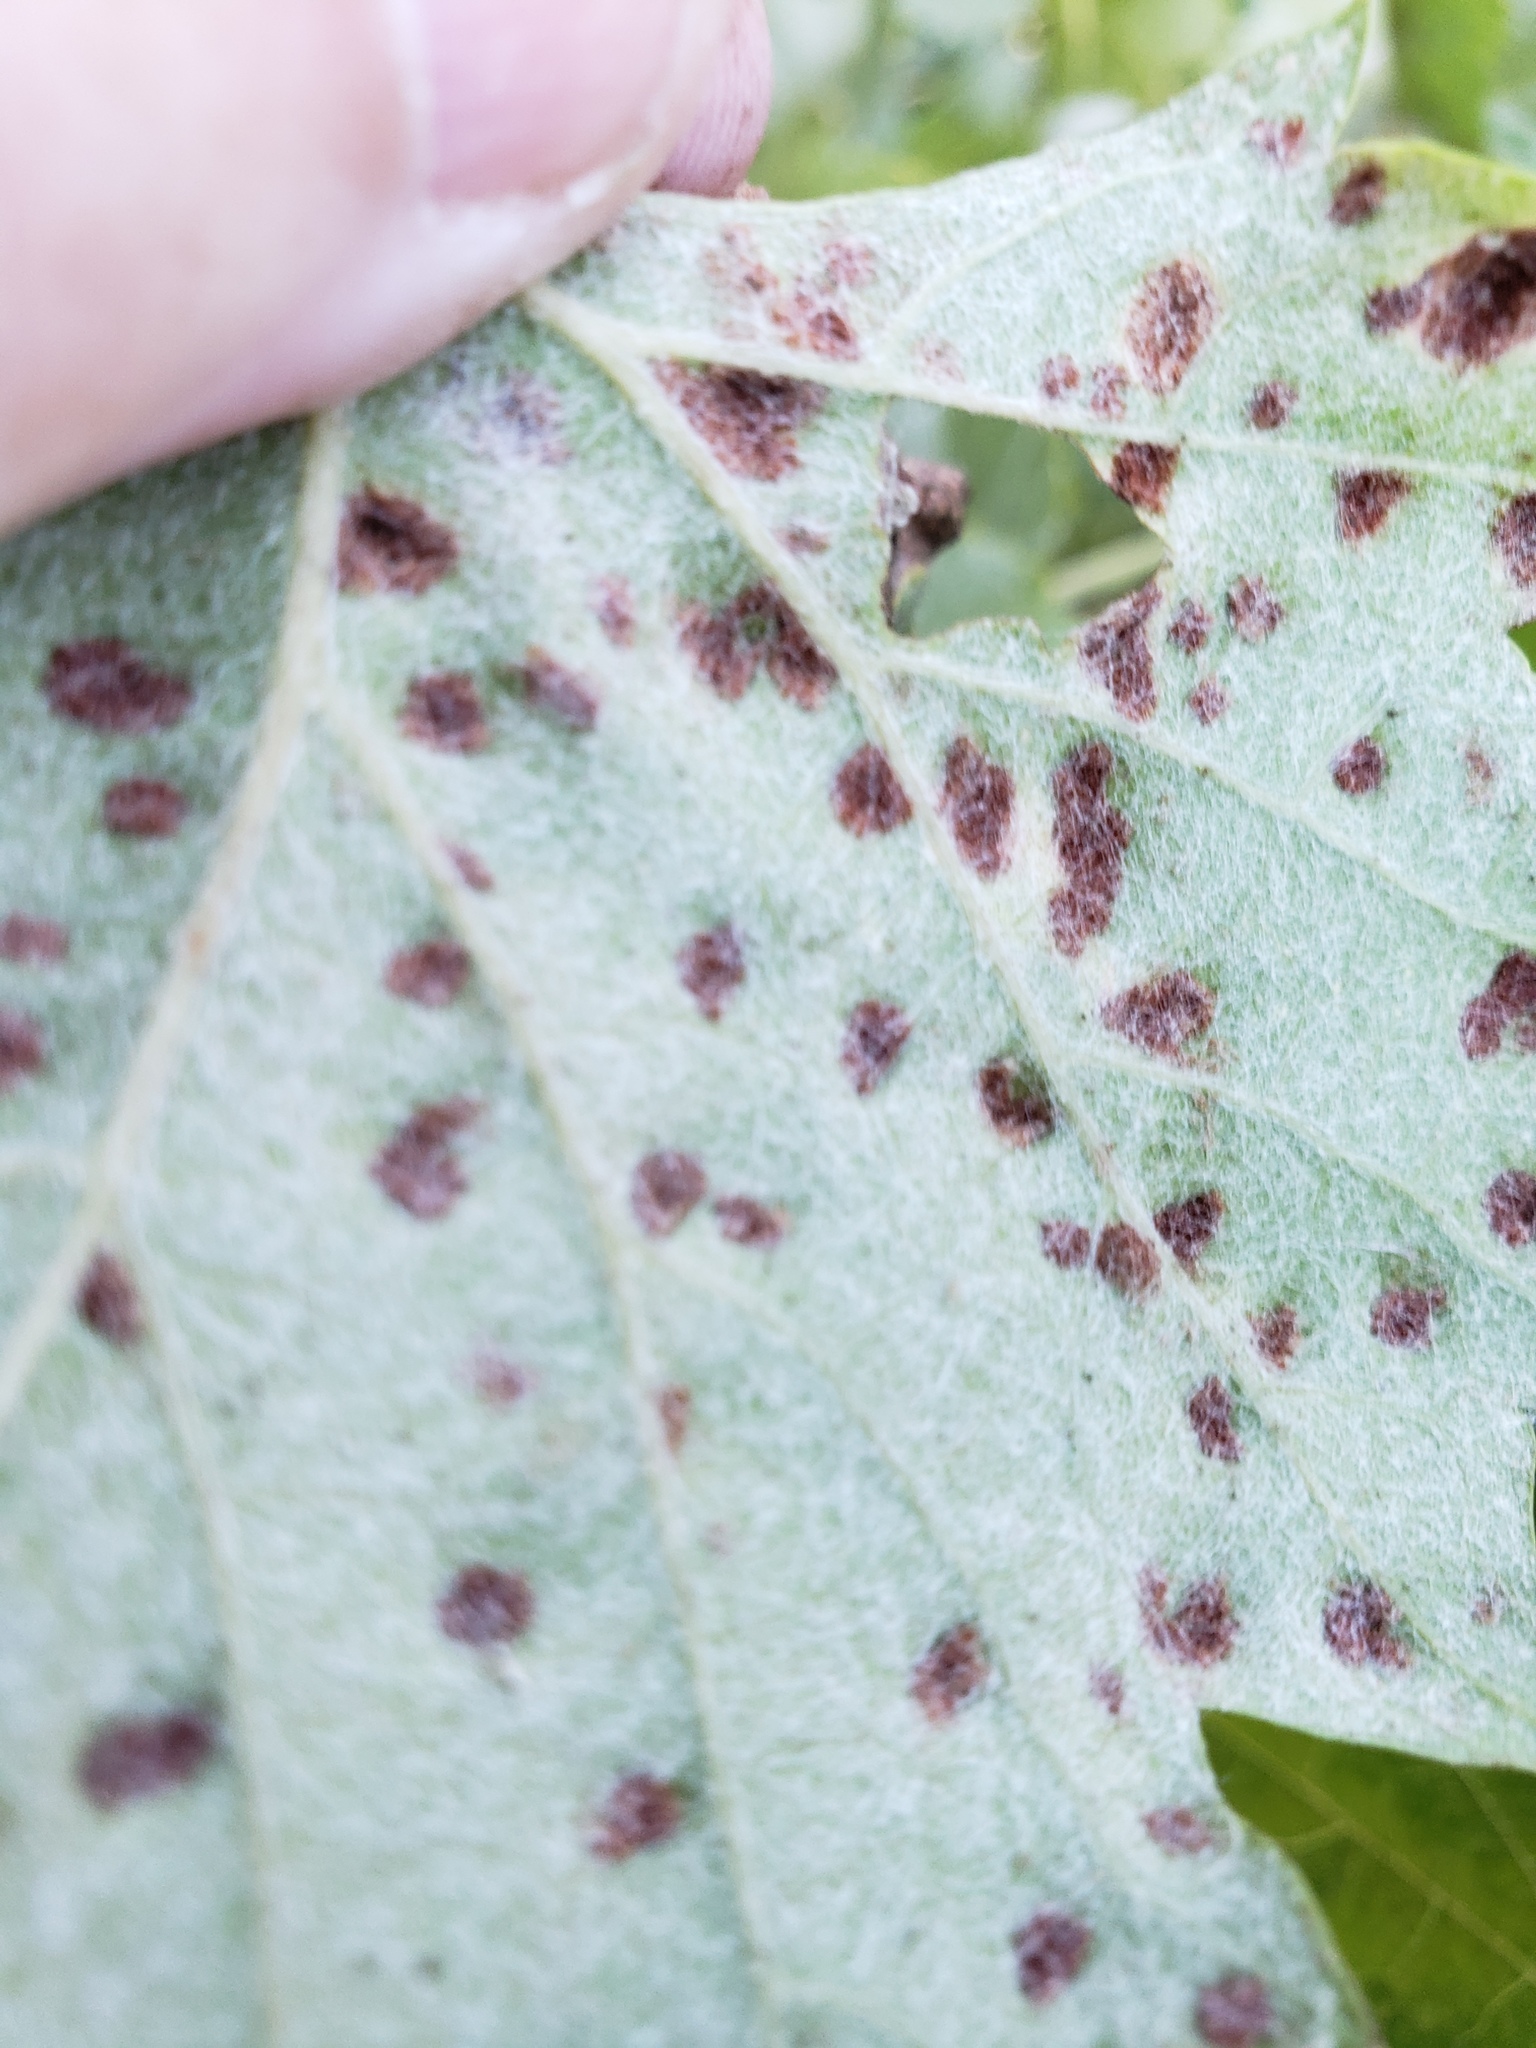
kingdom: Animalia
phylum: Arthropoda
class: Arachnida
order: Trombidiformes
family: Eriophyidae
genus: Colomerus
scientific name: Colomerus vitis
